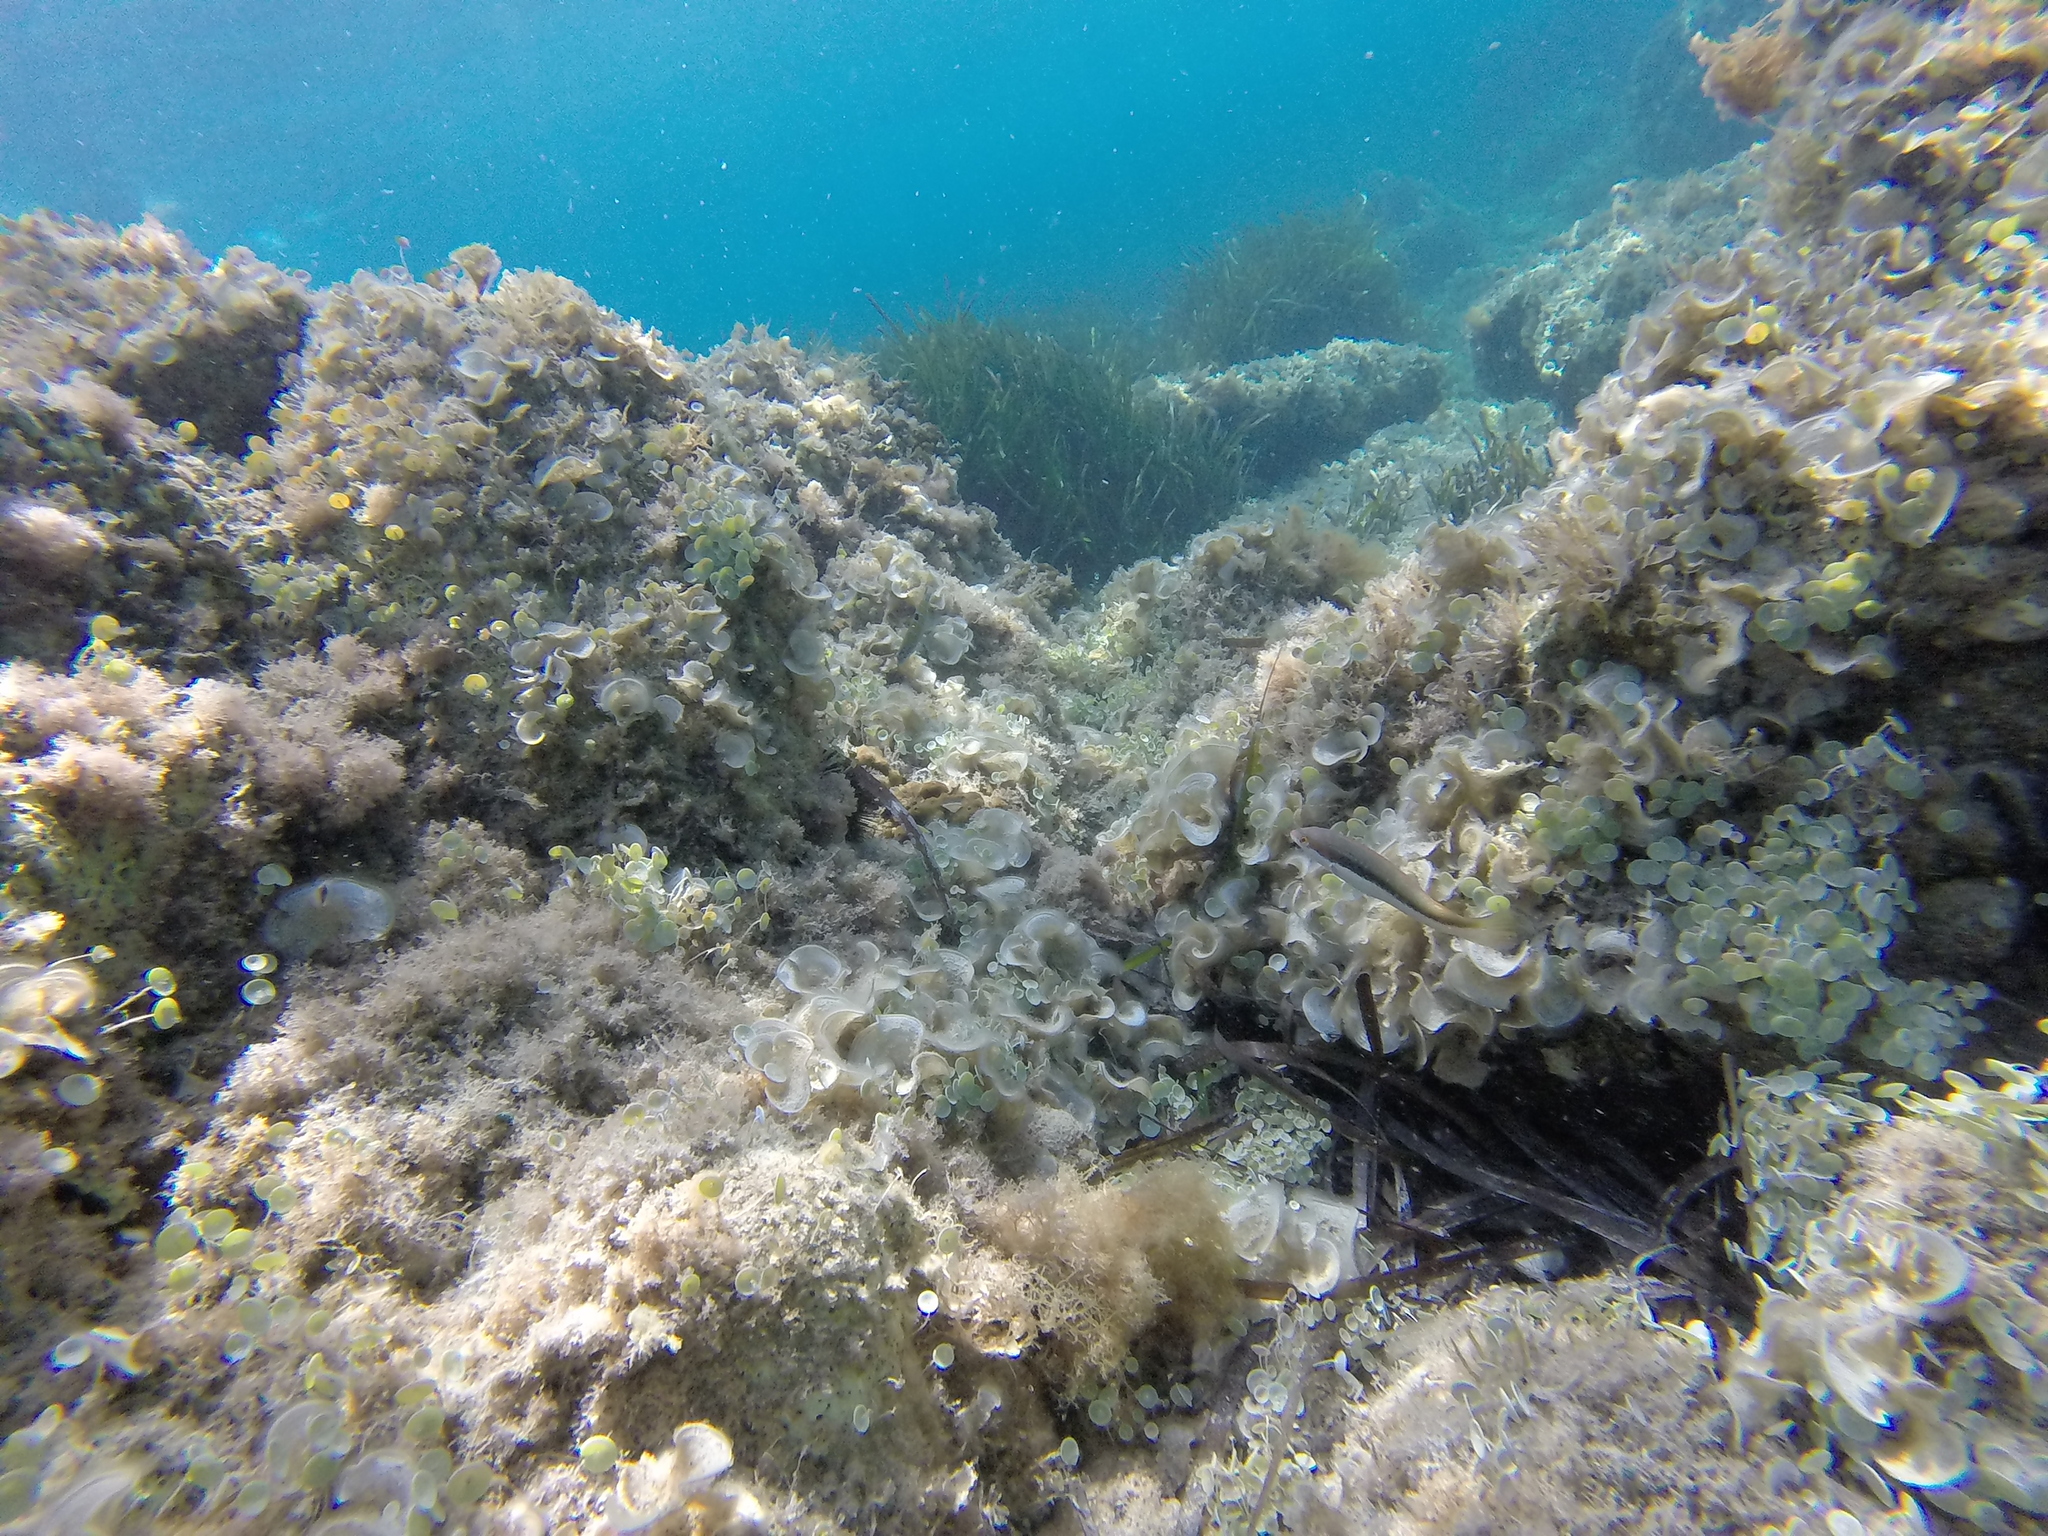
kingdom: Animalia
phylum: Chordata
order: Perciformes
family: Labridae
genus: Coris
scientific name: Coris julis
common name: Rainbow wrasse
